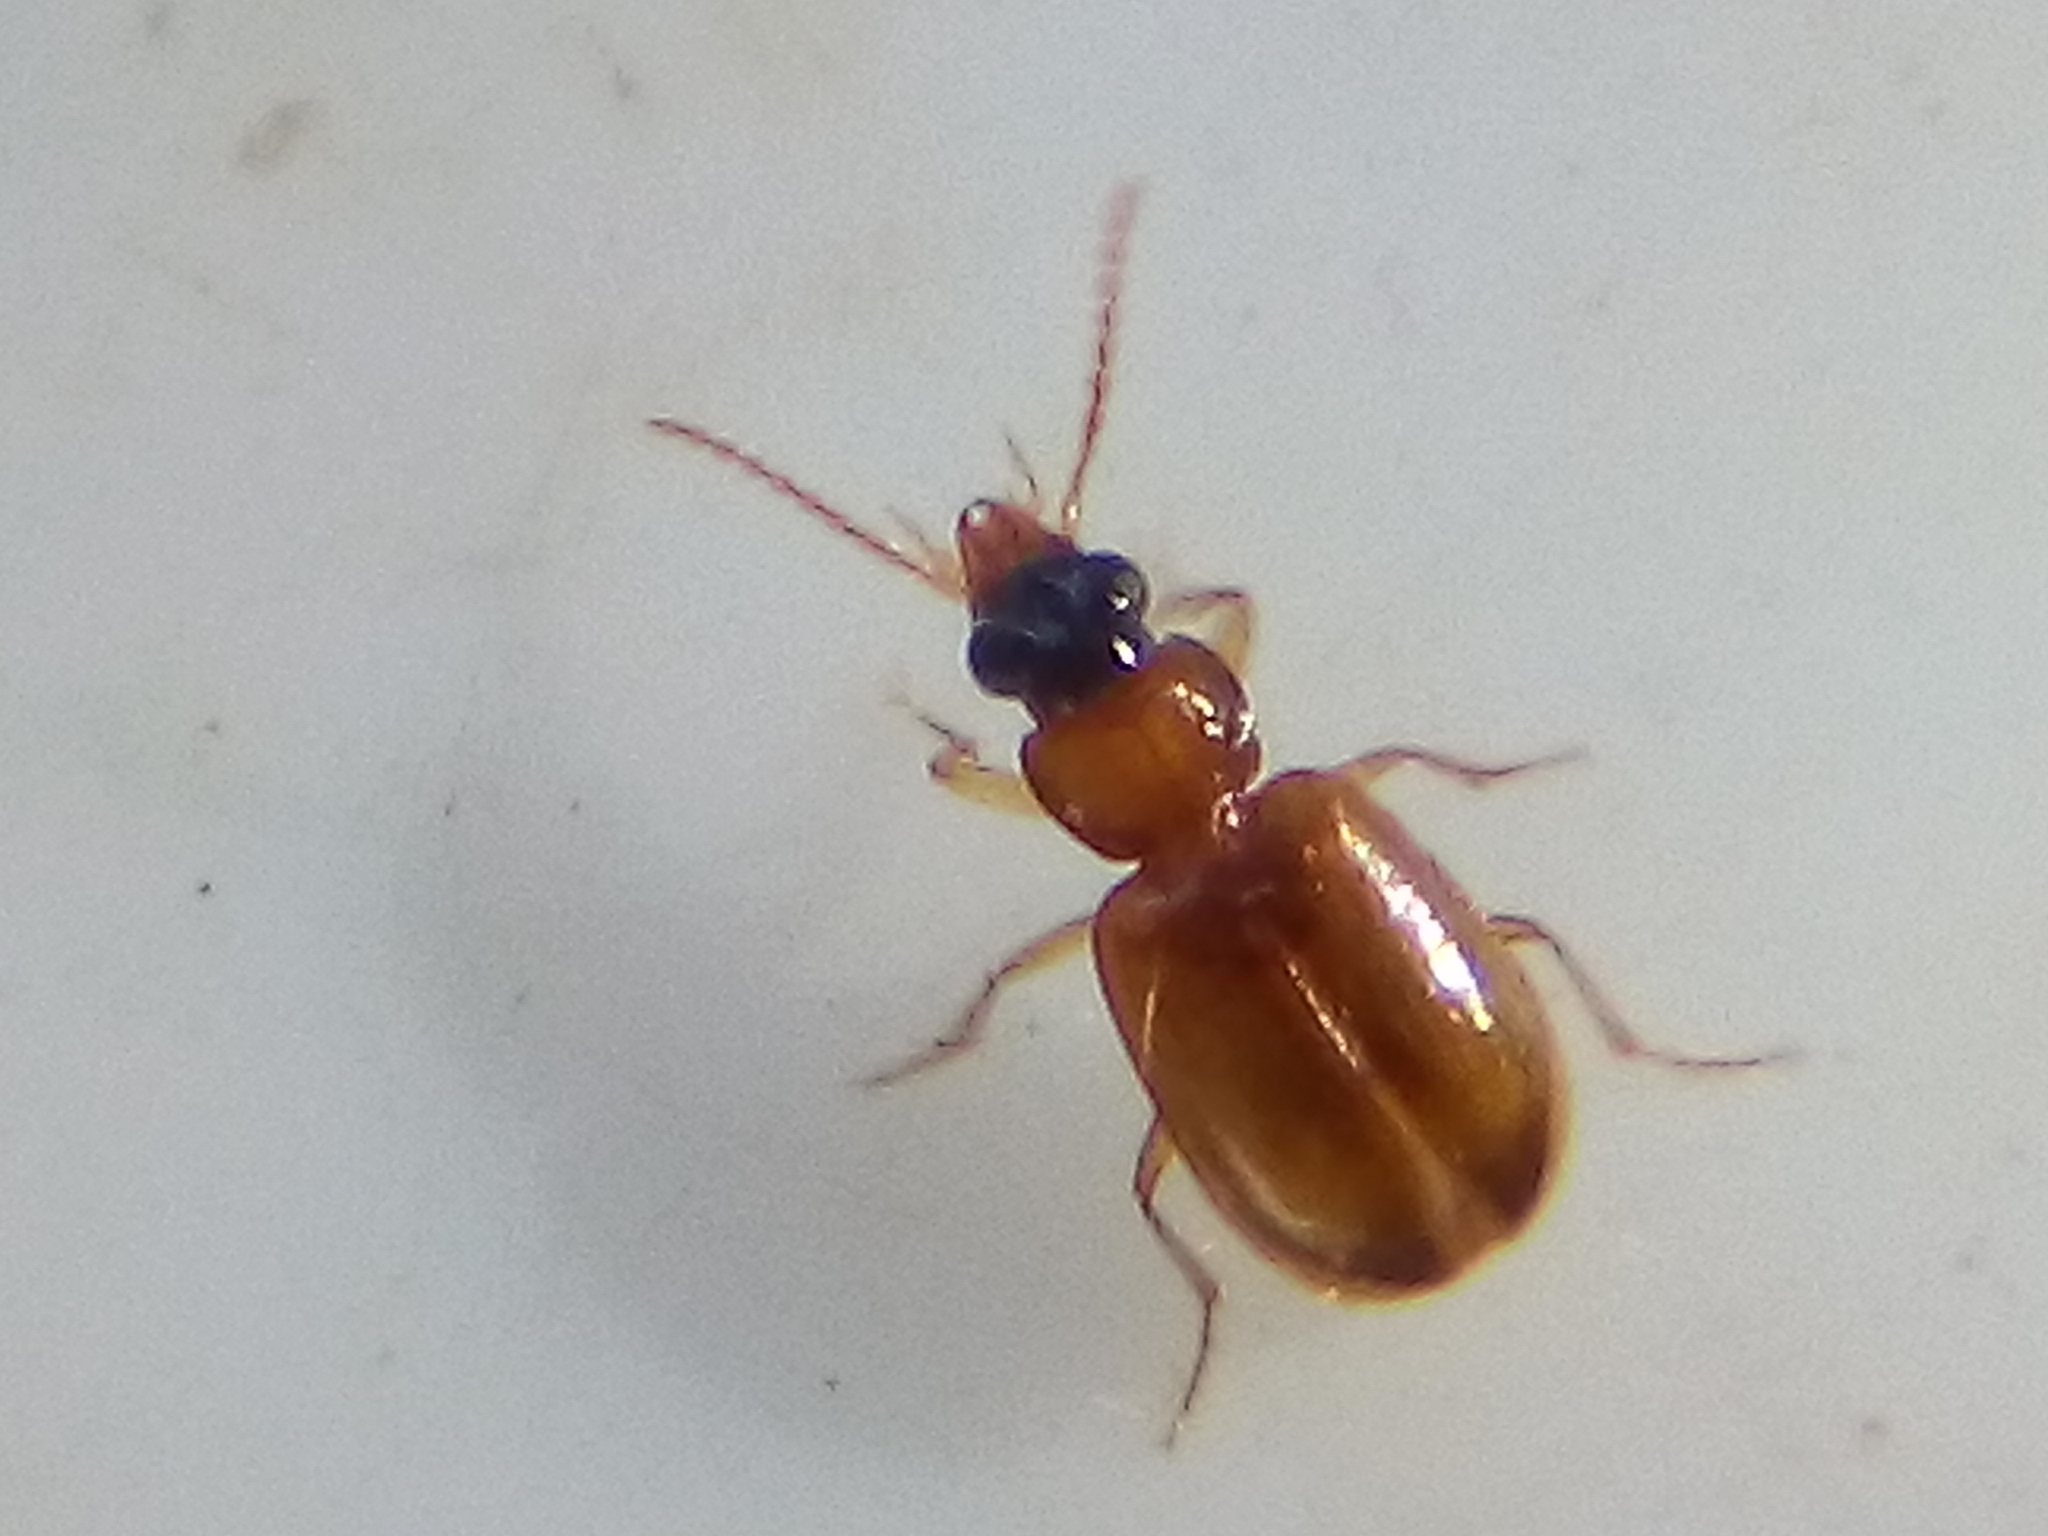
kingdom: Animalia
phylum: Arthropoda
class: Insecta
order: Coleoptera
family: Carabidae
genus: Perigona
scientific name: Perigona nigriceps
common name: Tawny harp ground beetle
